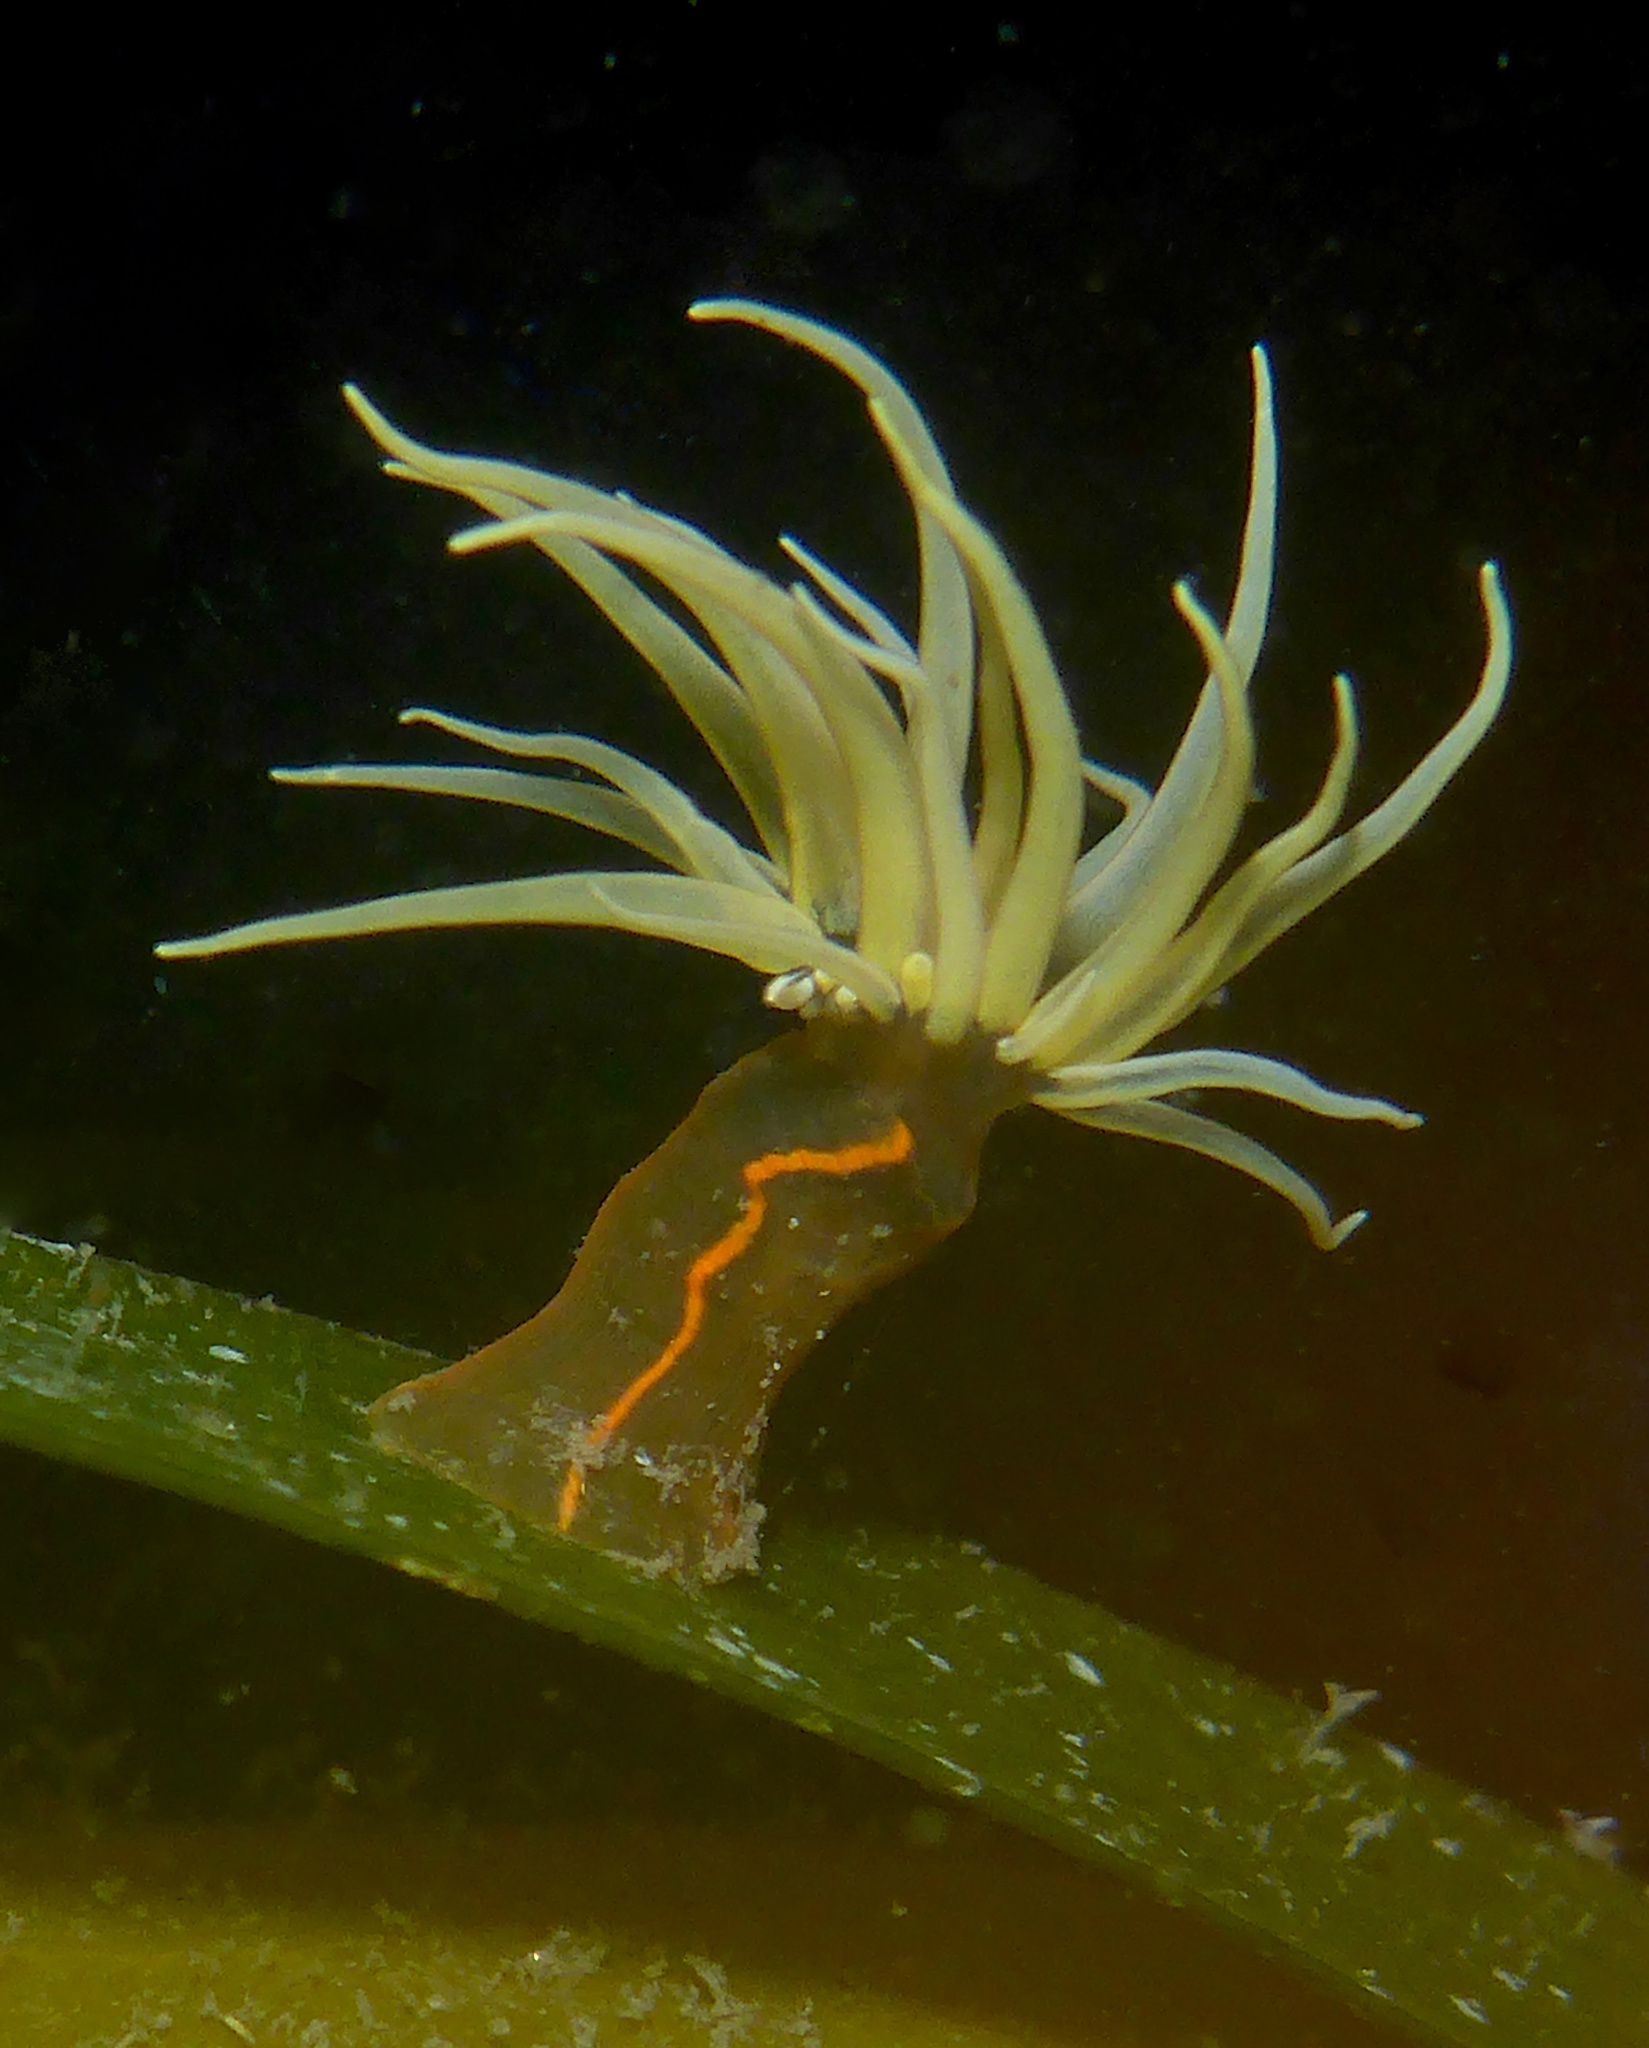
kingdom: Animalia
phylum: Cnidaria
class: Anthozoa
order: Actiniaria
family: Diadumenidae
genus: Diadumene
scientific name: Diadumene lineata
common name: Orange-striped anemone
